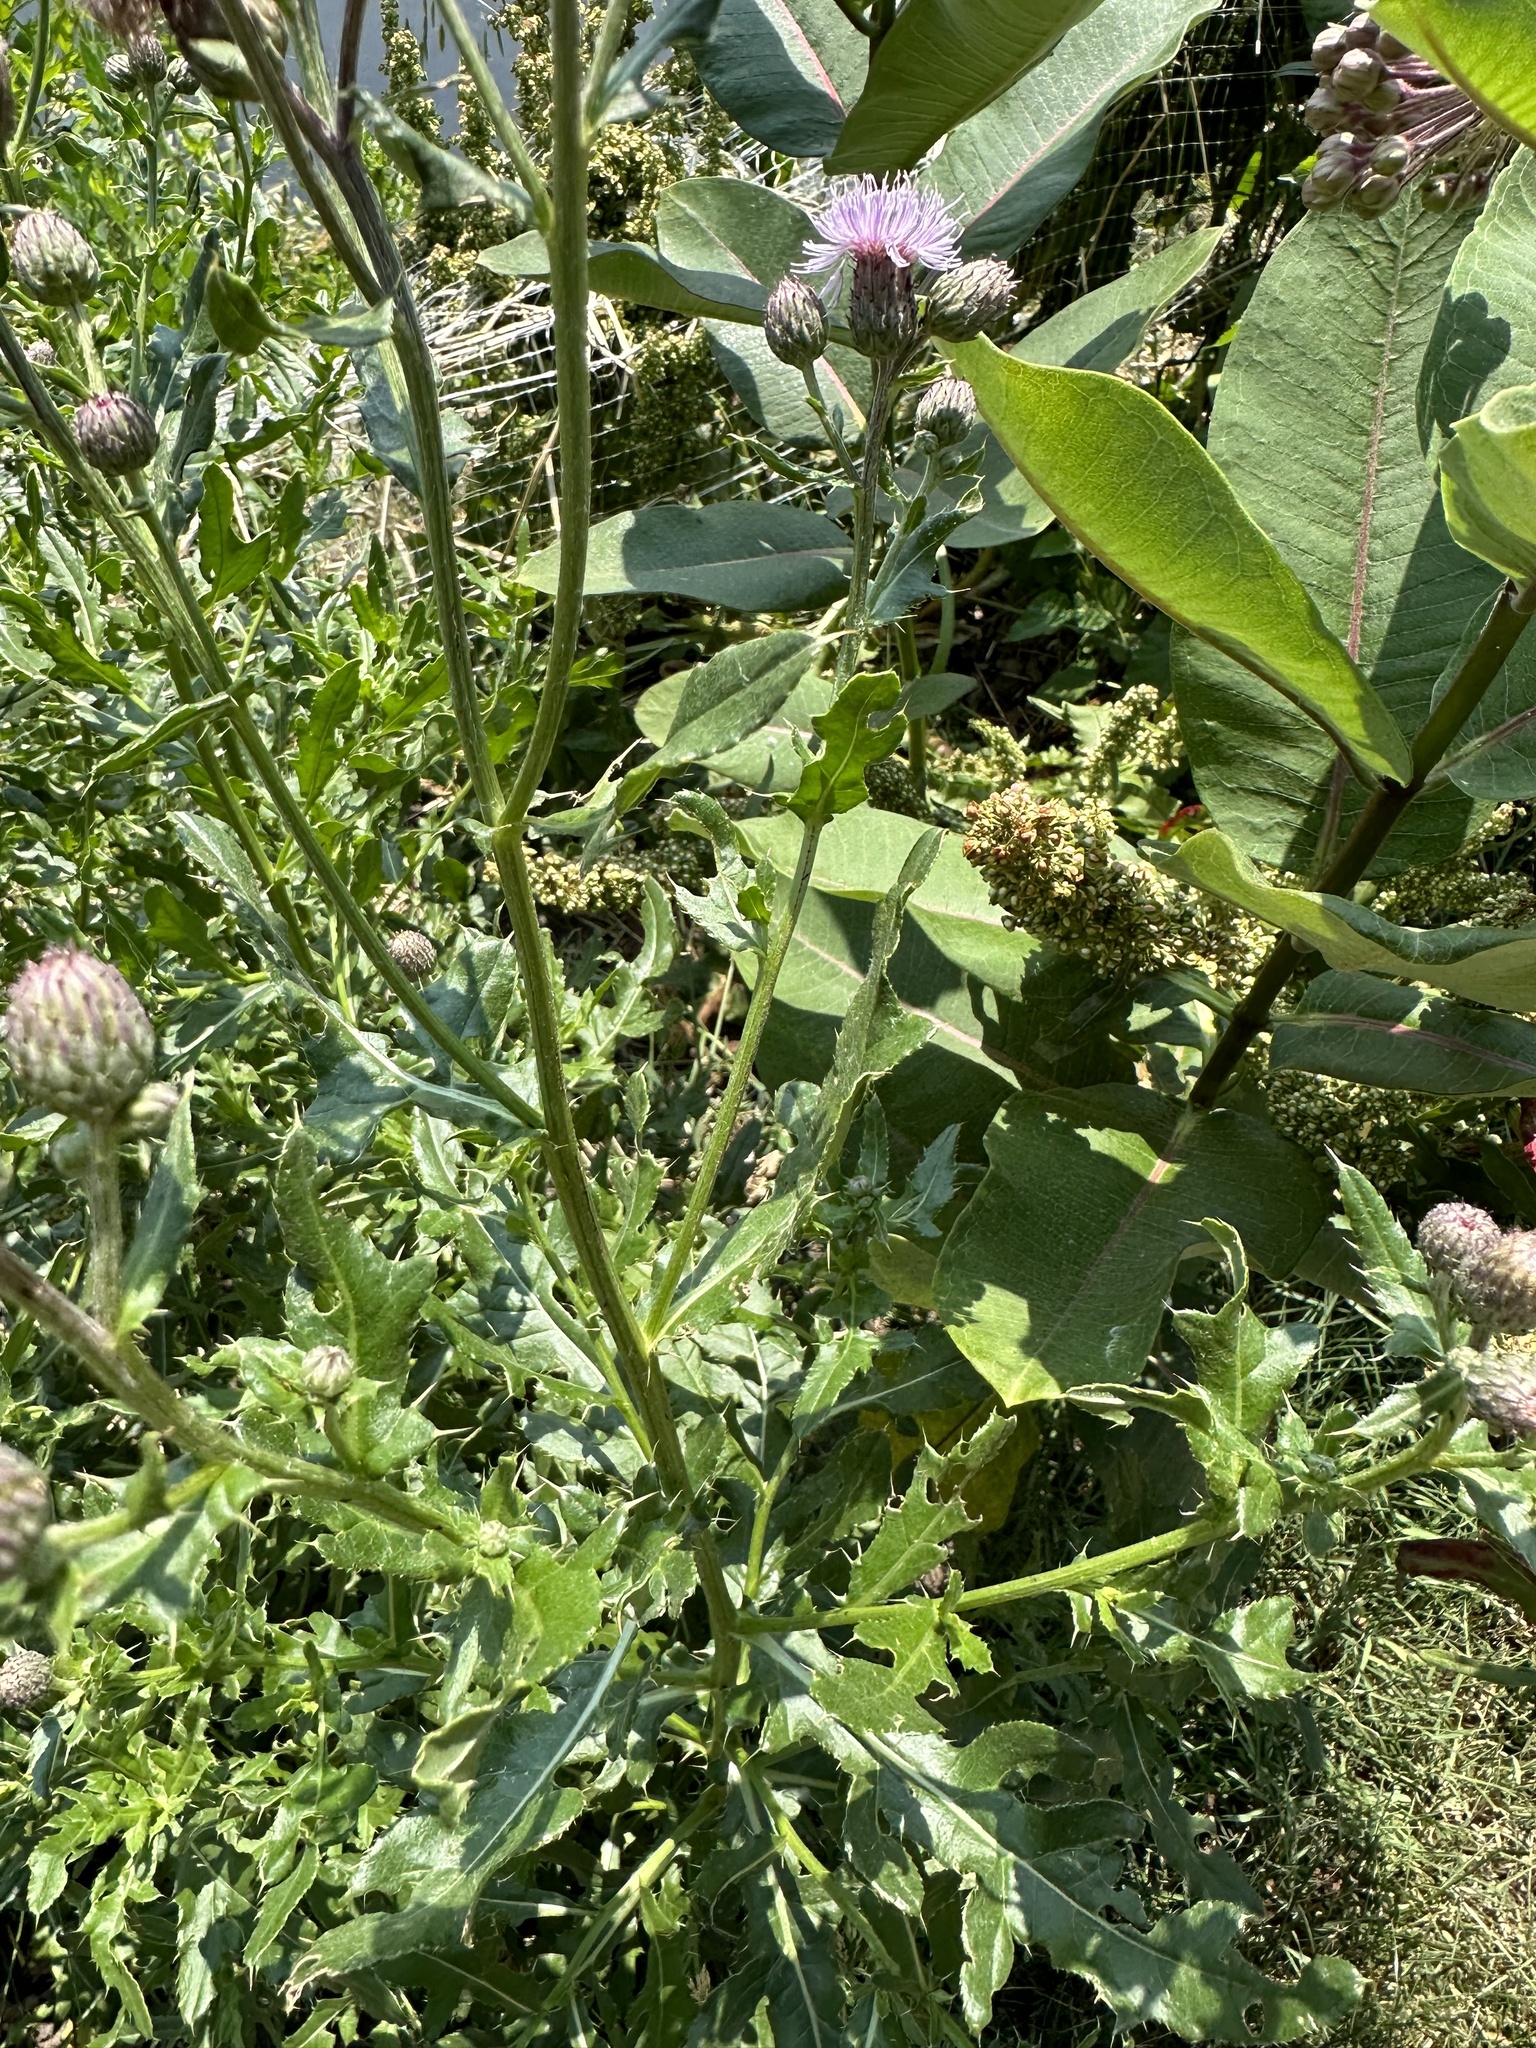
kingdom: Plantae
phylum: Tracheophyta
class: Magnoliopsida
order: Asterales
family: Asteraceae
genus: Cirsium
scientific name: Cirsium arvense
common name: Creeping thistle
